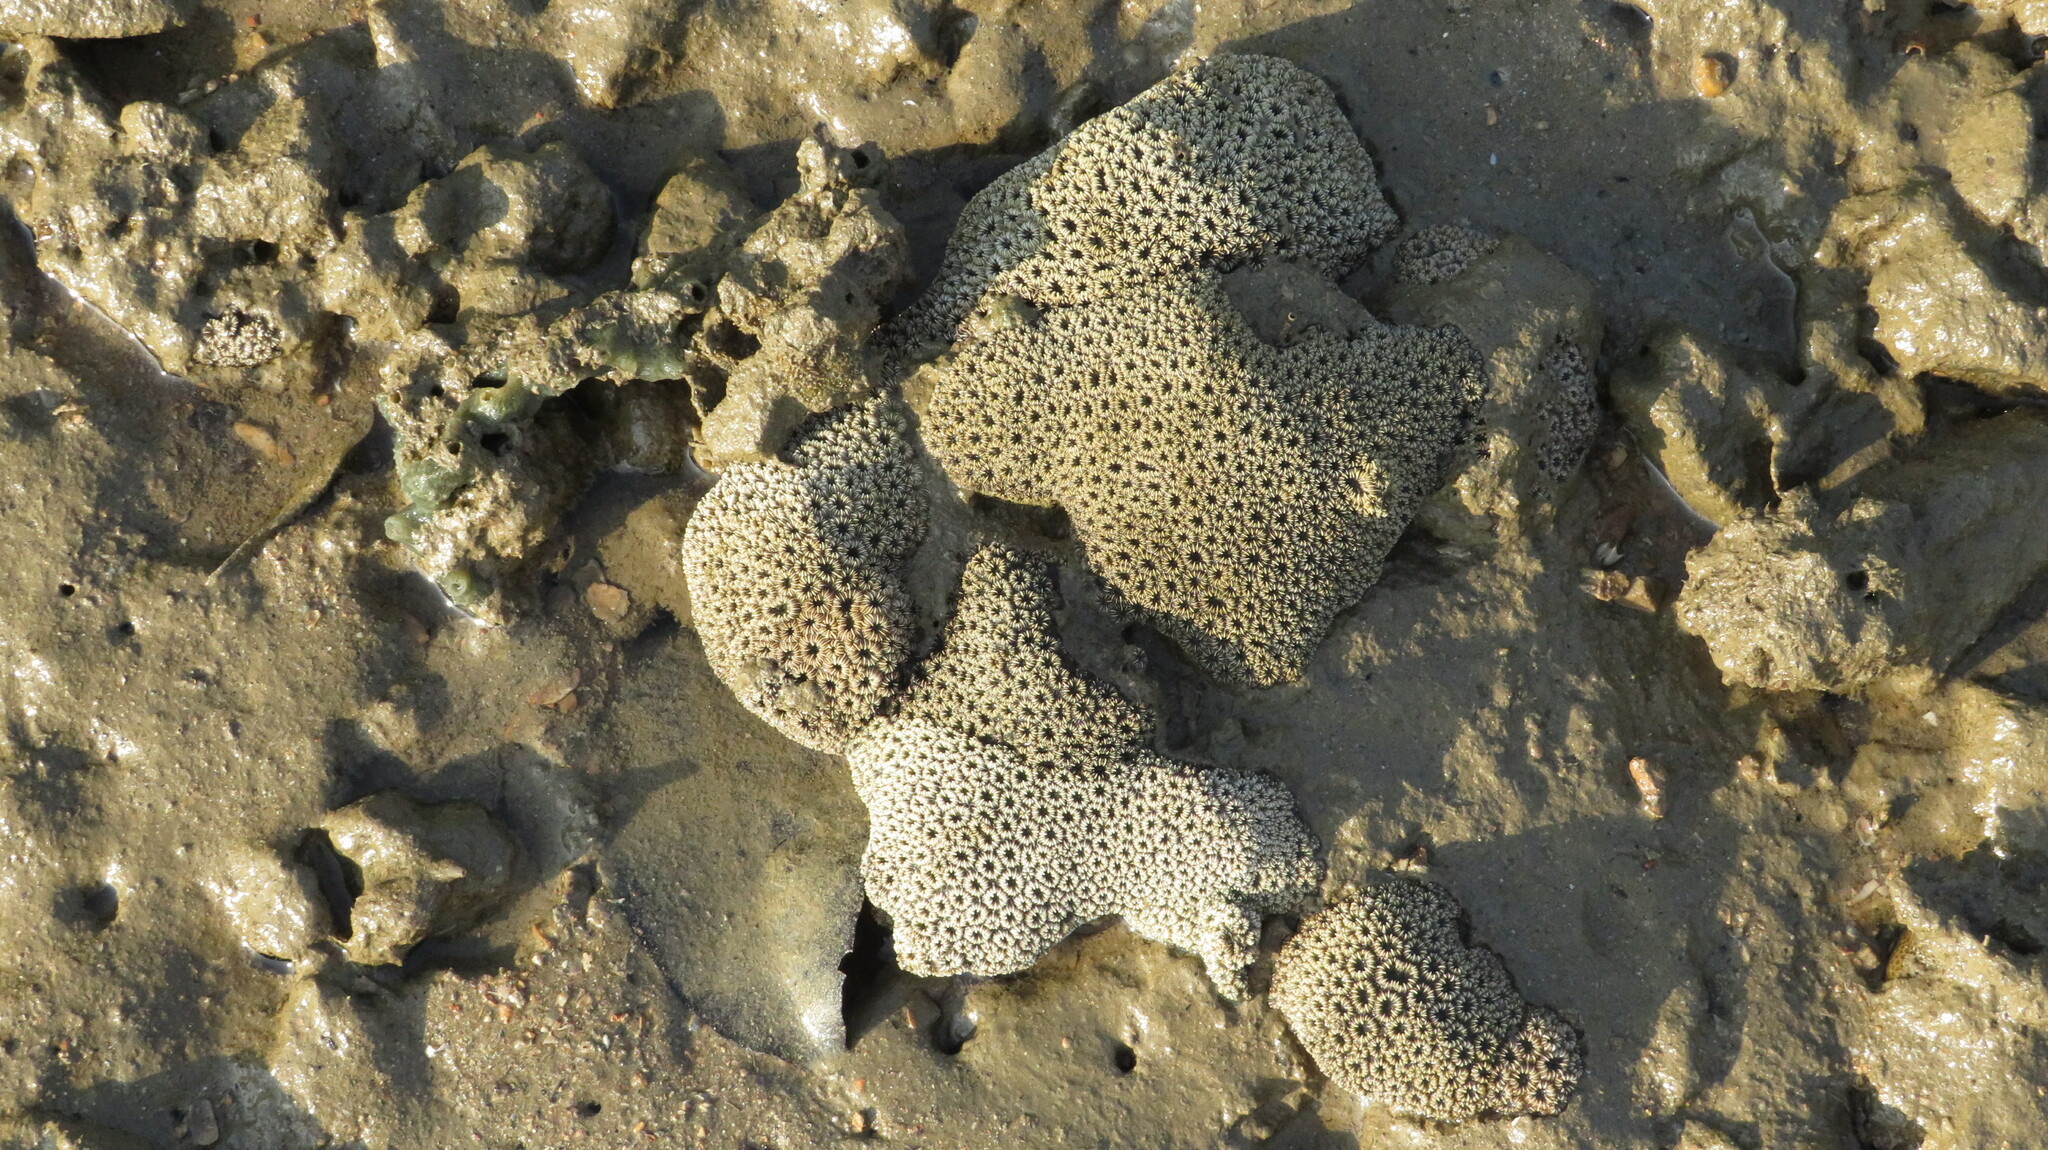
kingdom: Animalia
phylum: Cnidaria
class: Anthozoa
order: Scleractinia
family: Oulastreidae
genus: Oulastrea
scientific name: Oulastrea crispata
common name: Zebra coral
